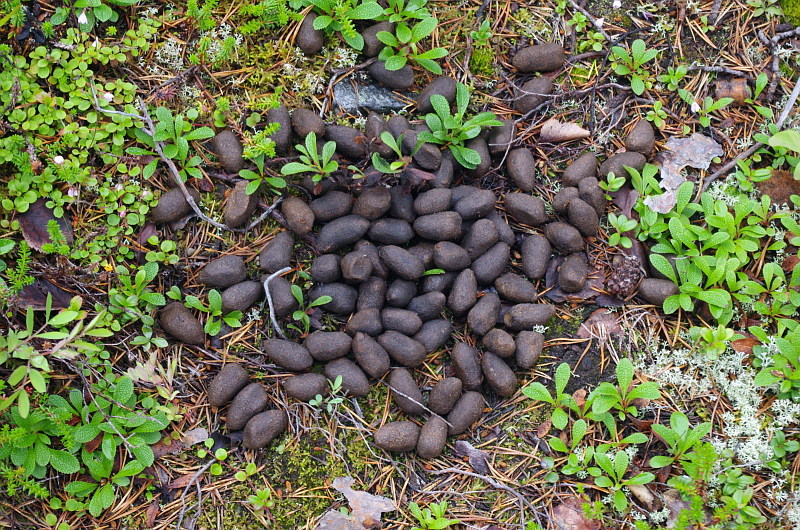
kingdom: Animalia
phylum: Chordata
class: Mammalia
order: Artiodactyla
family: Cervidae
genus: Alces
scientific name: Alces alces
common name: Moose
